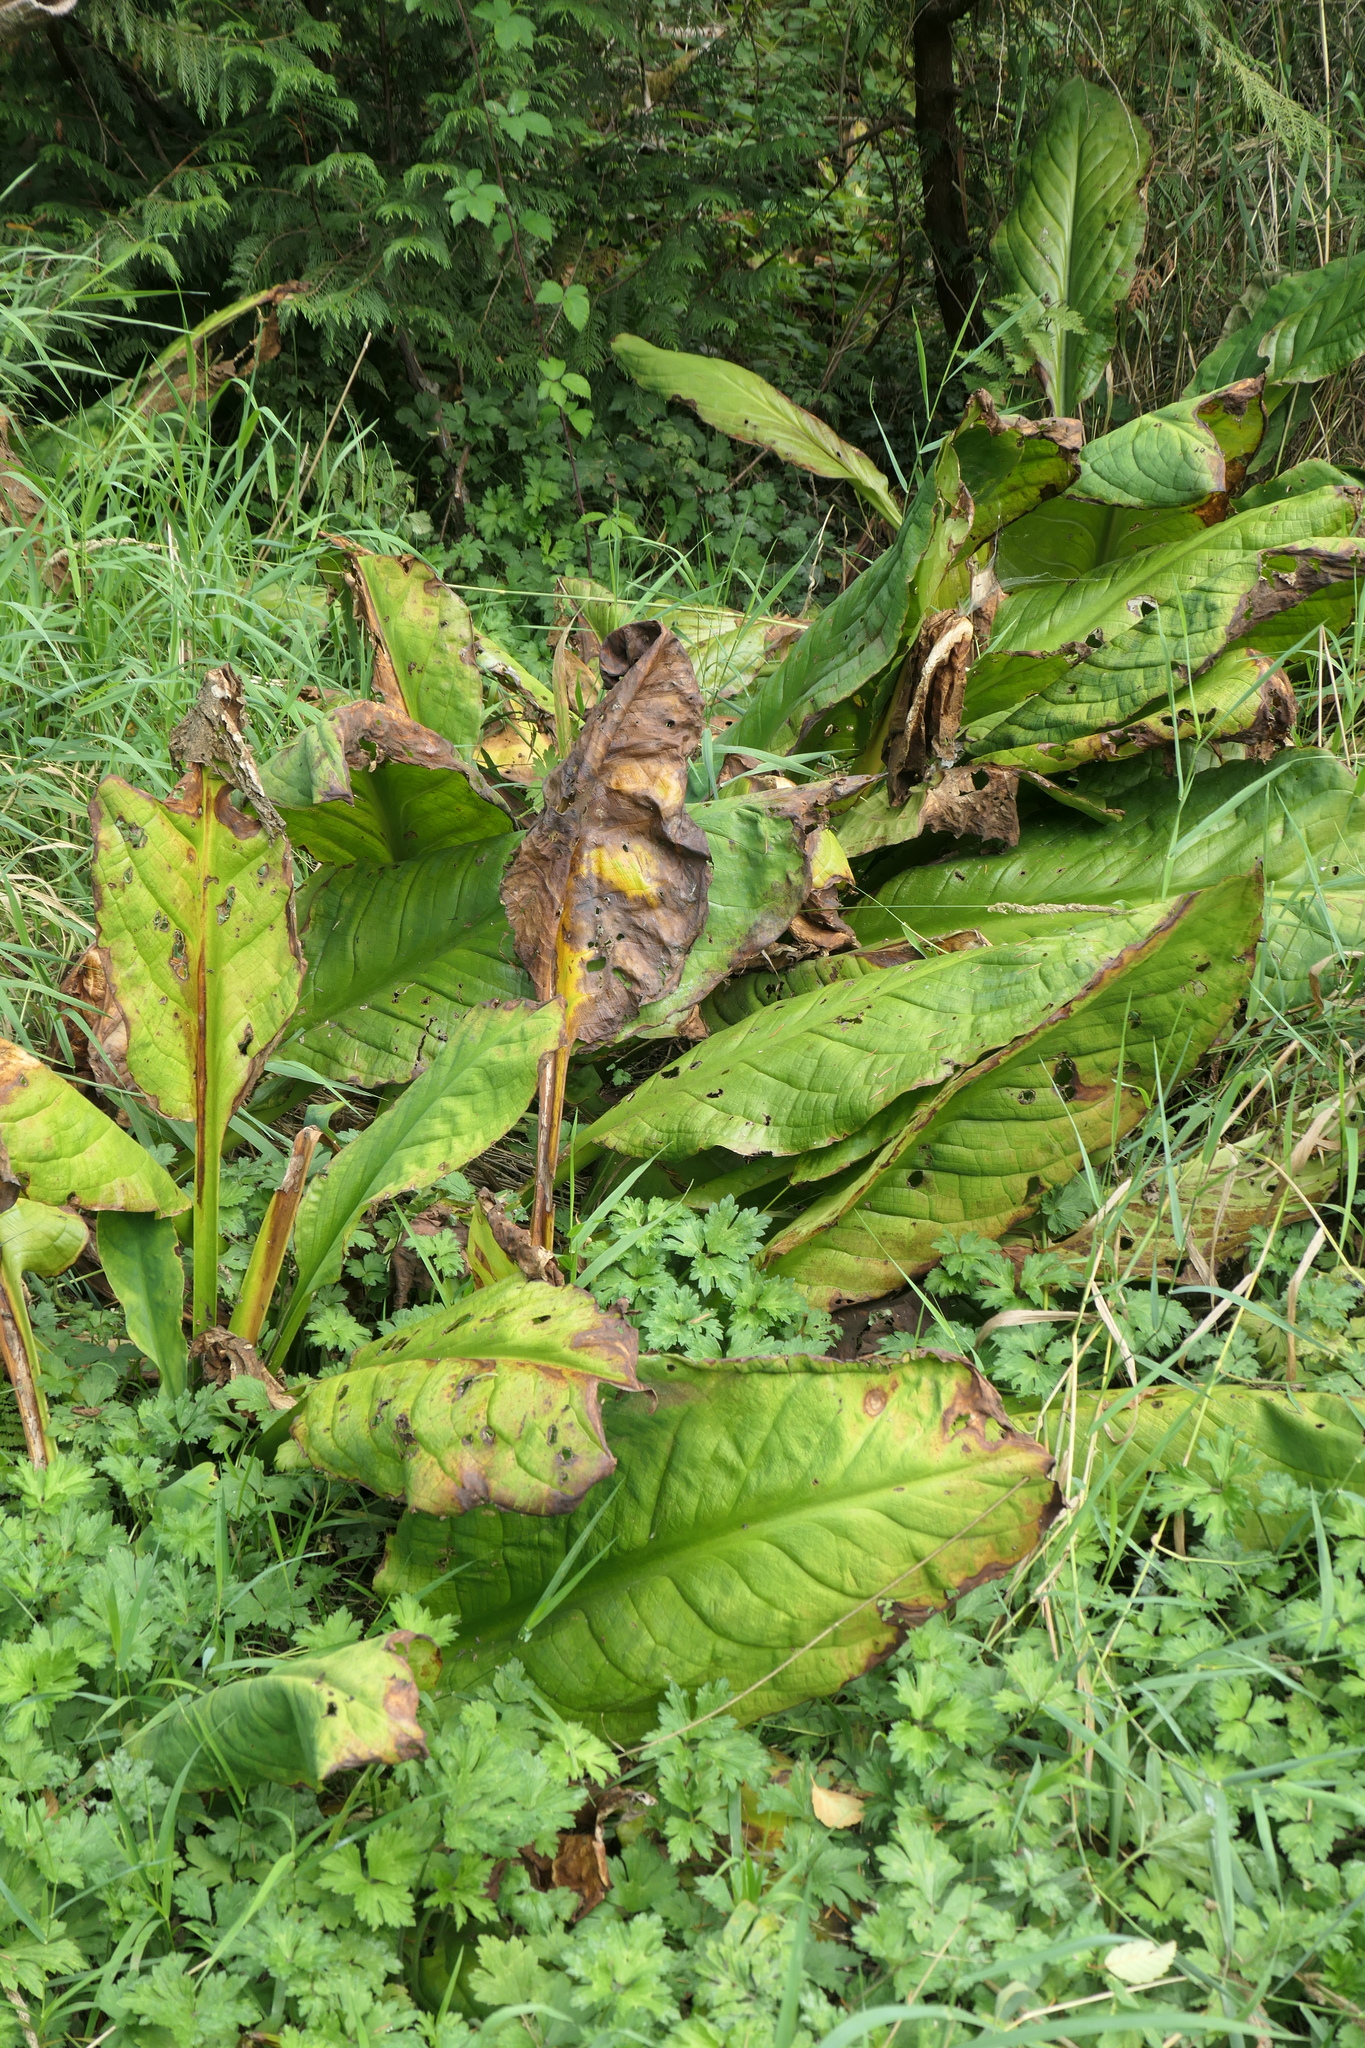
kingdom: Plantae
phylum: Tracheophyta
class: Liliopsida
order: Alismatales
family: Araceae
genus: Lysichiton
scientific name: Lysichiton americanus
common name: American skunk cabbage
